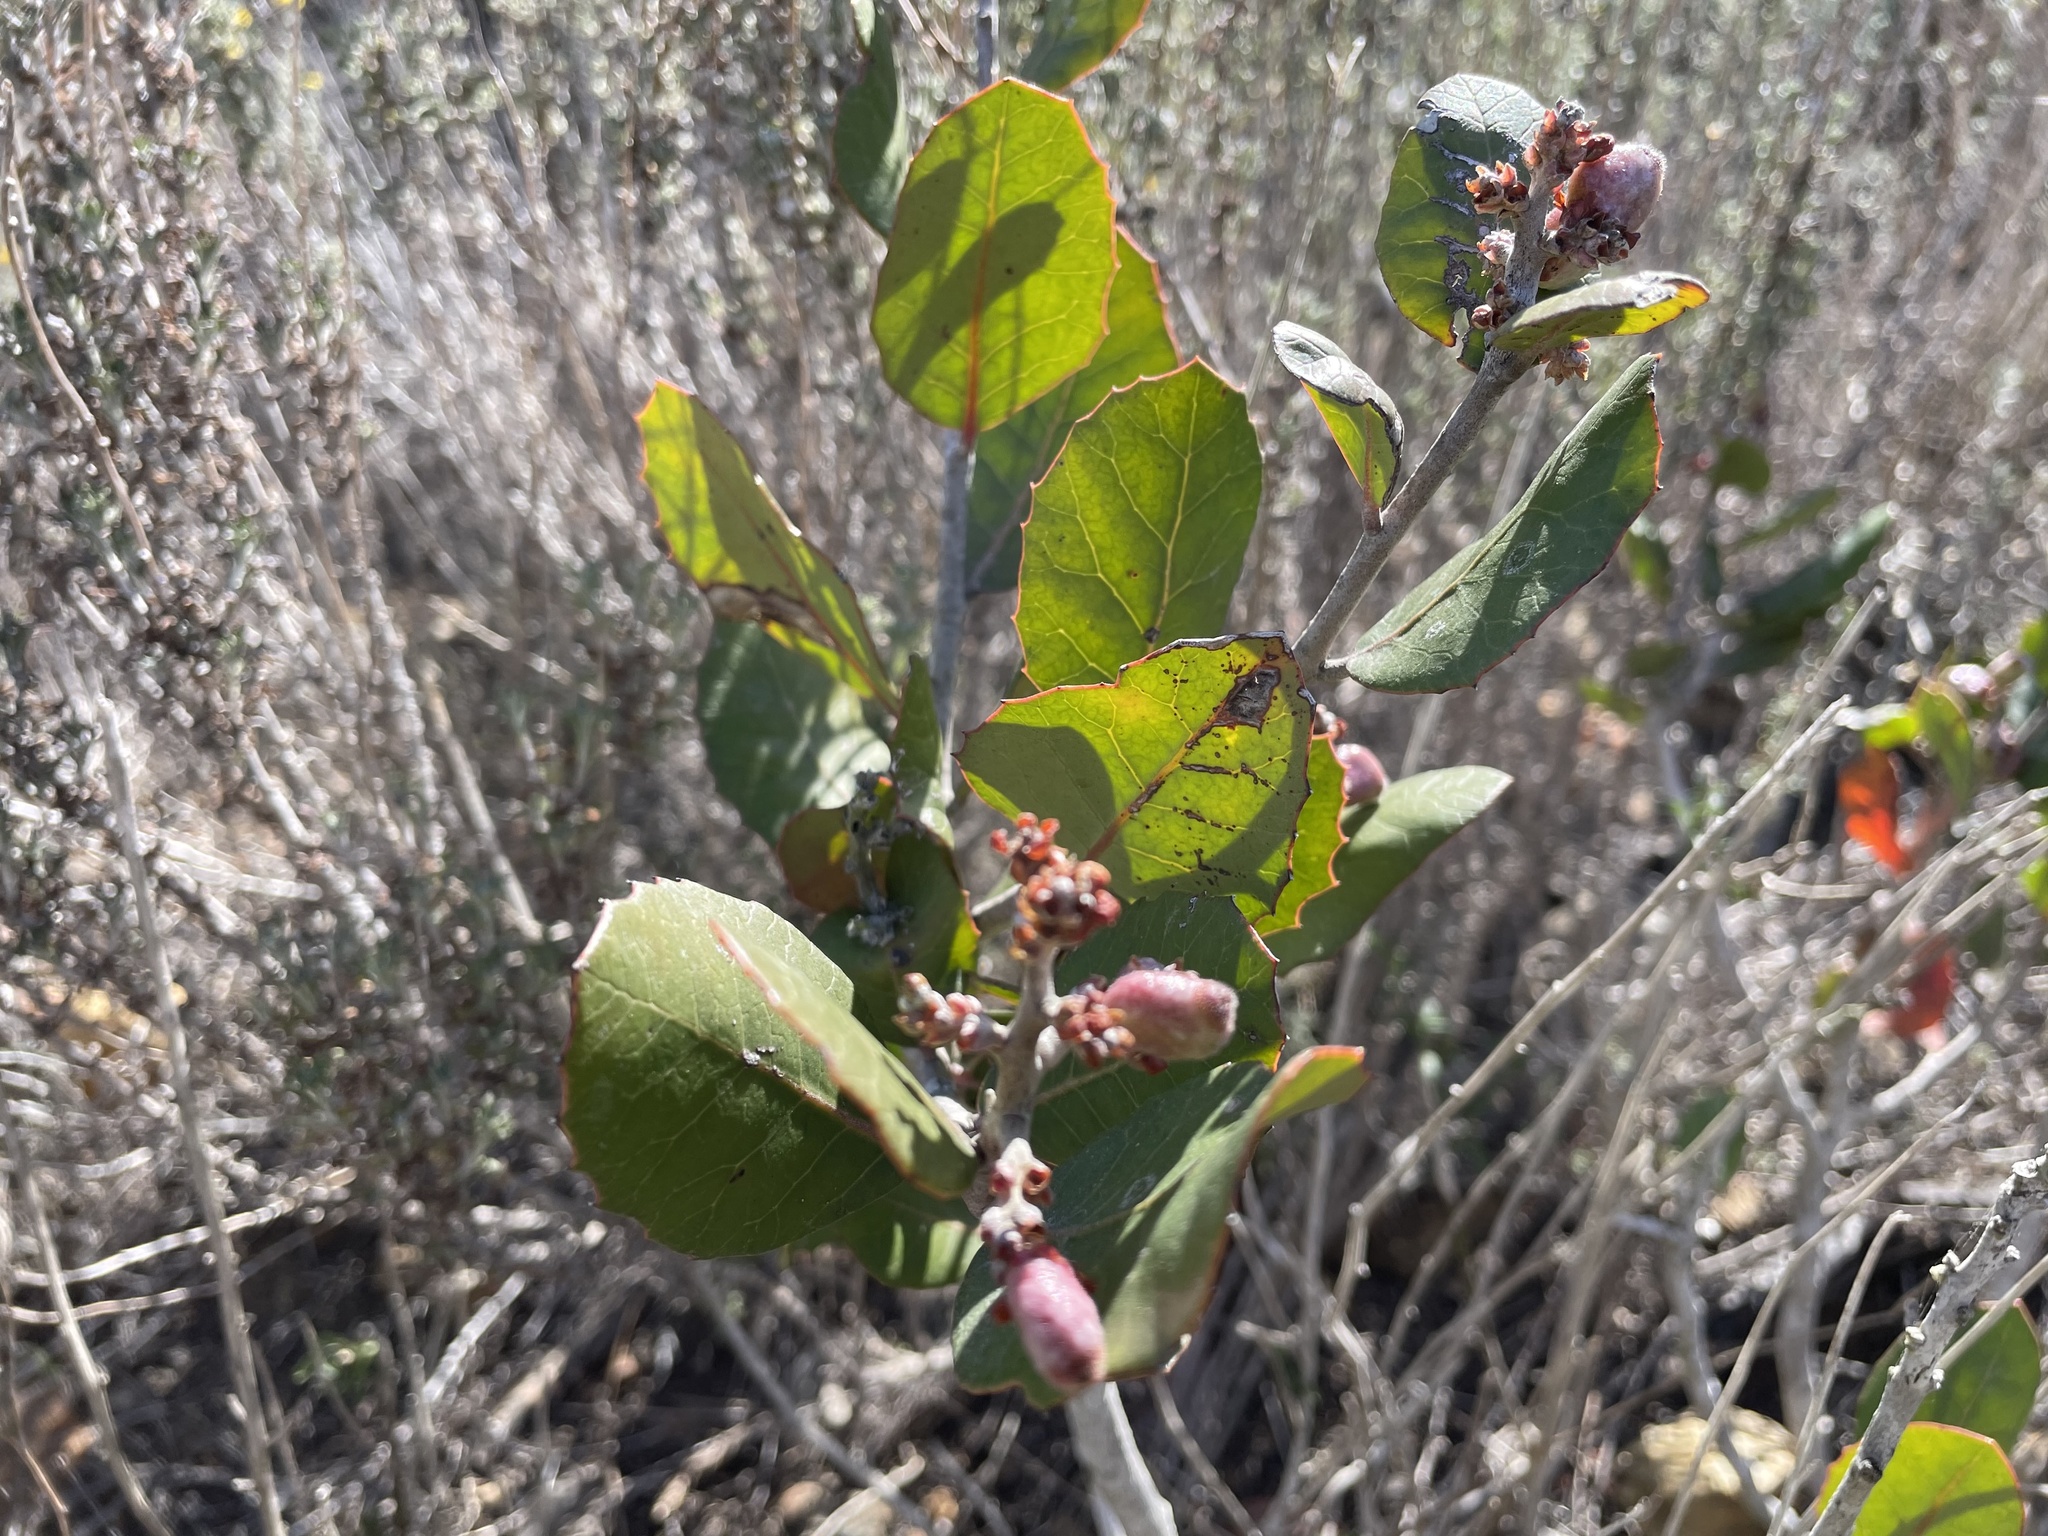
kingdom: Plantae
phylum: Tracheophyta
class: Magnoliopsida
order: Sapindales
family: Anacardiaceae
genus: Rhus
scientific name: Rhus integrifolia
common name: Lemonade sumac
